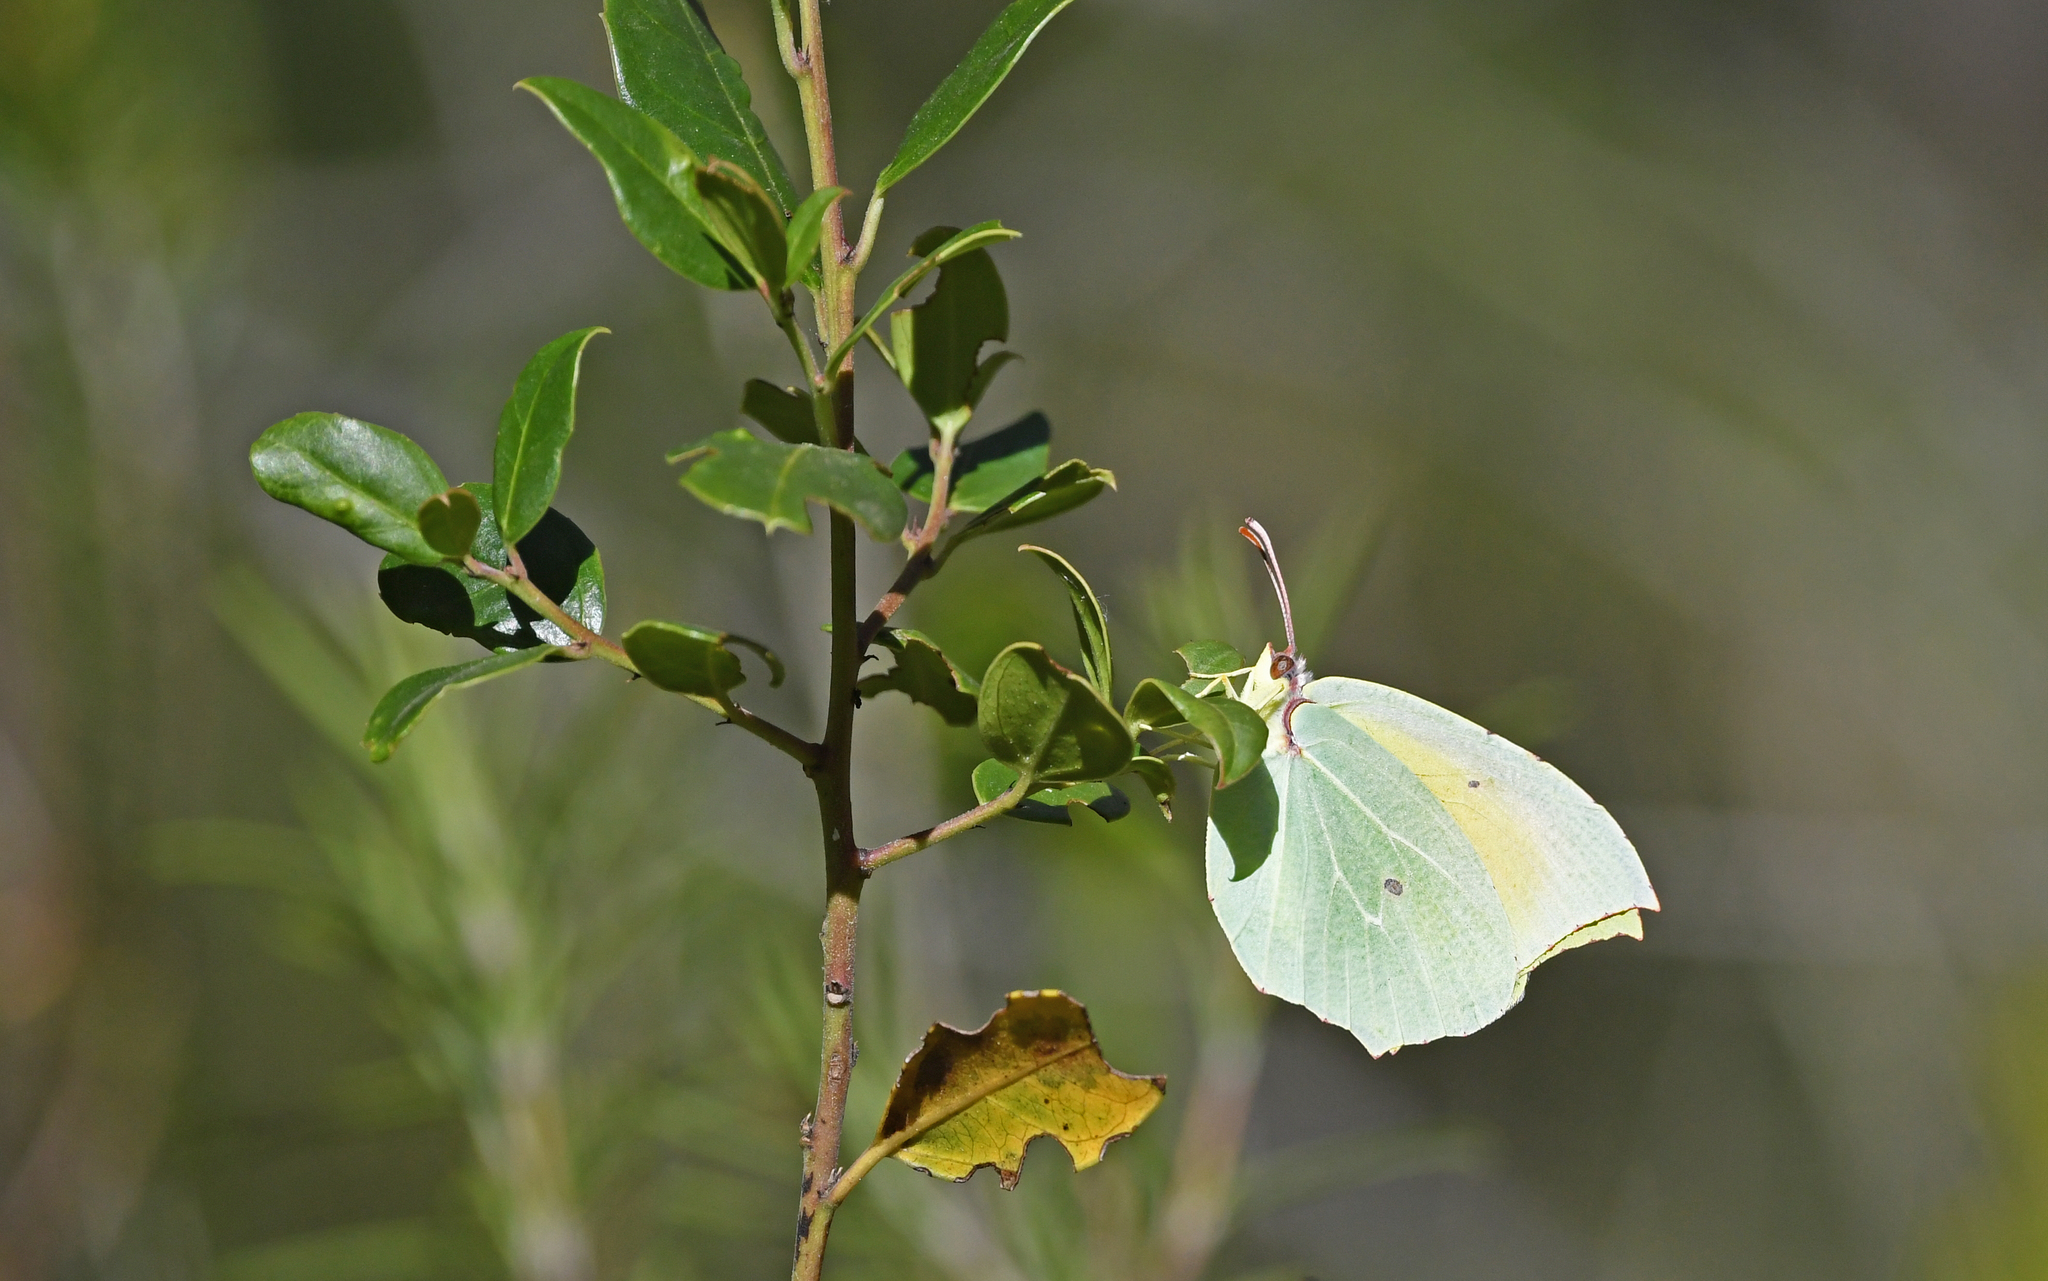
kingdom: Animalia
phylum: Arthropoda
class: Insecta
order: Lepidoptera
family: Pieridae
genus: Gonepteryx
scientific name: Gonepteryx cleopatra
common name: Cleopatra
